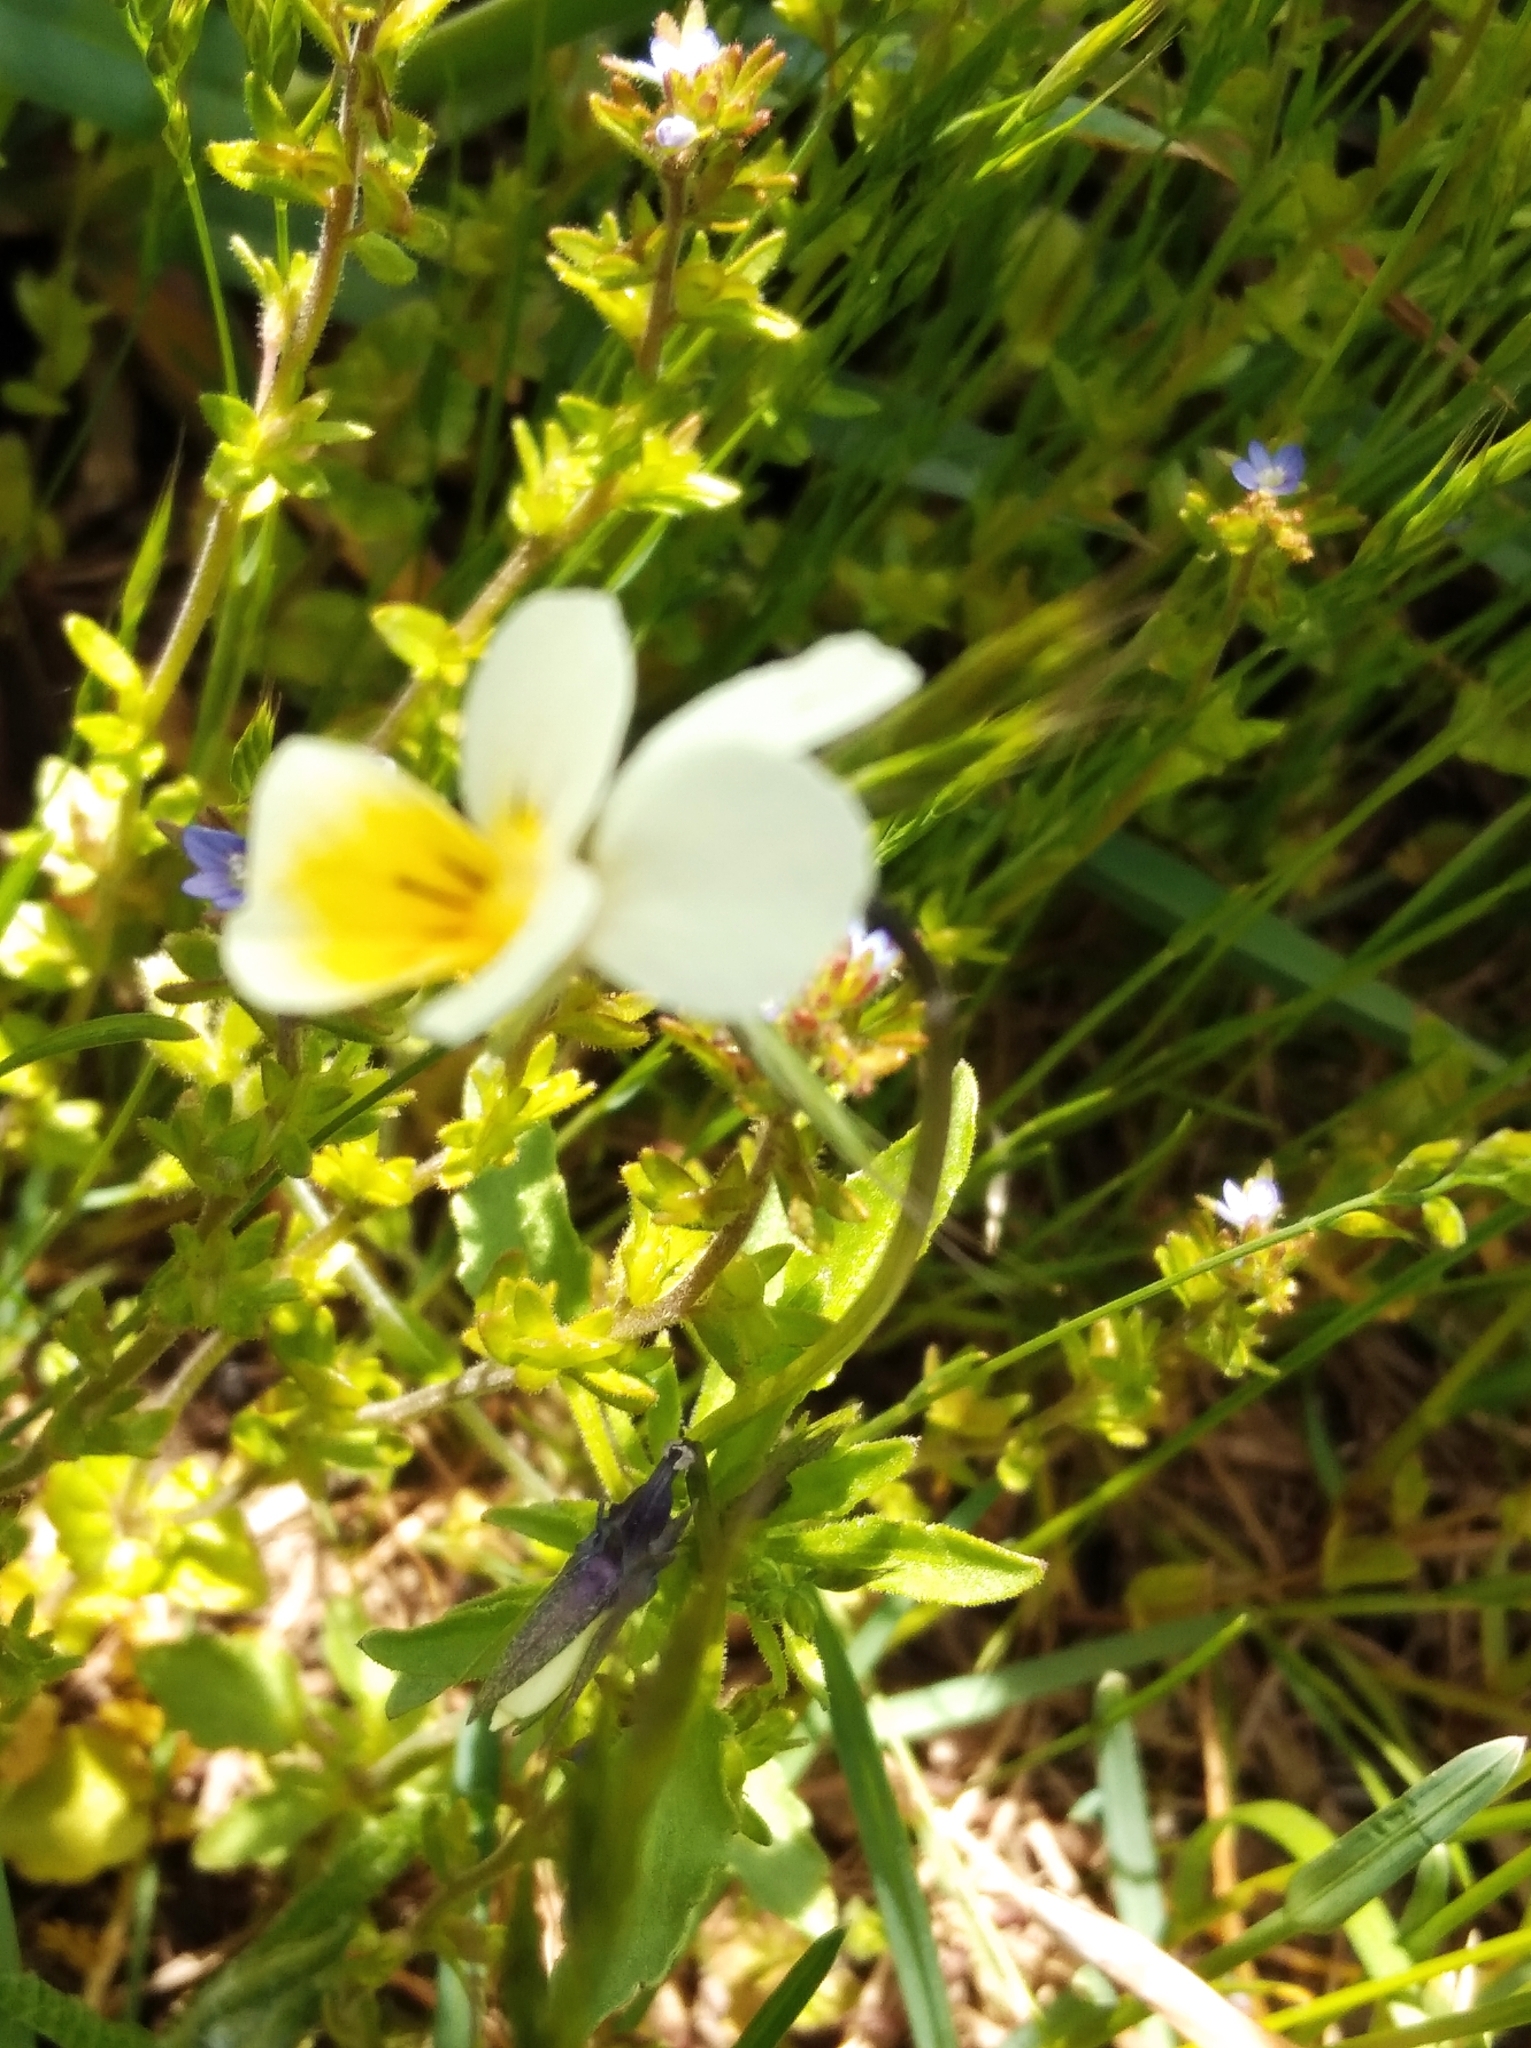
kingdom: Plantae
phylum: Tracheophyta
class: Magnoliopsida
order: Malpighiales
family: Violaceae
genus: Viola
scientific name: Viola arvensis
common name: Field pansy
